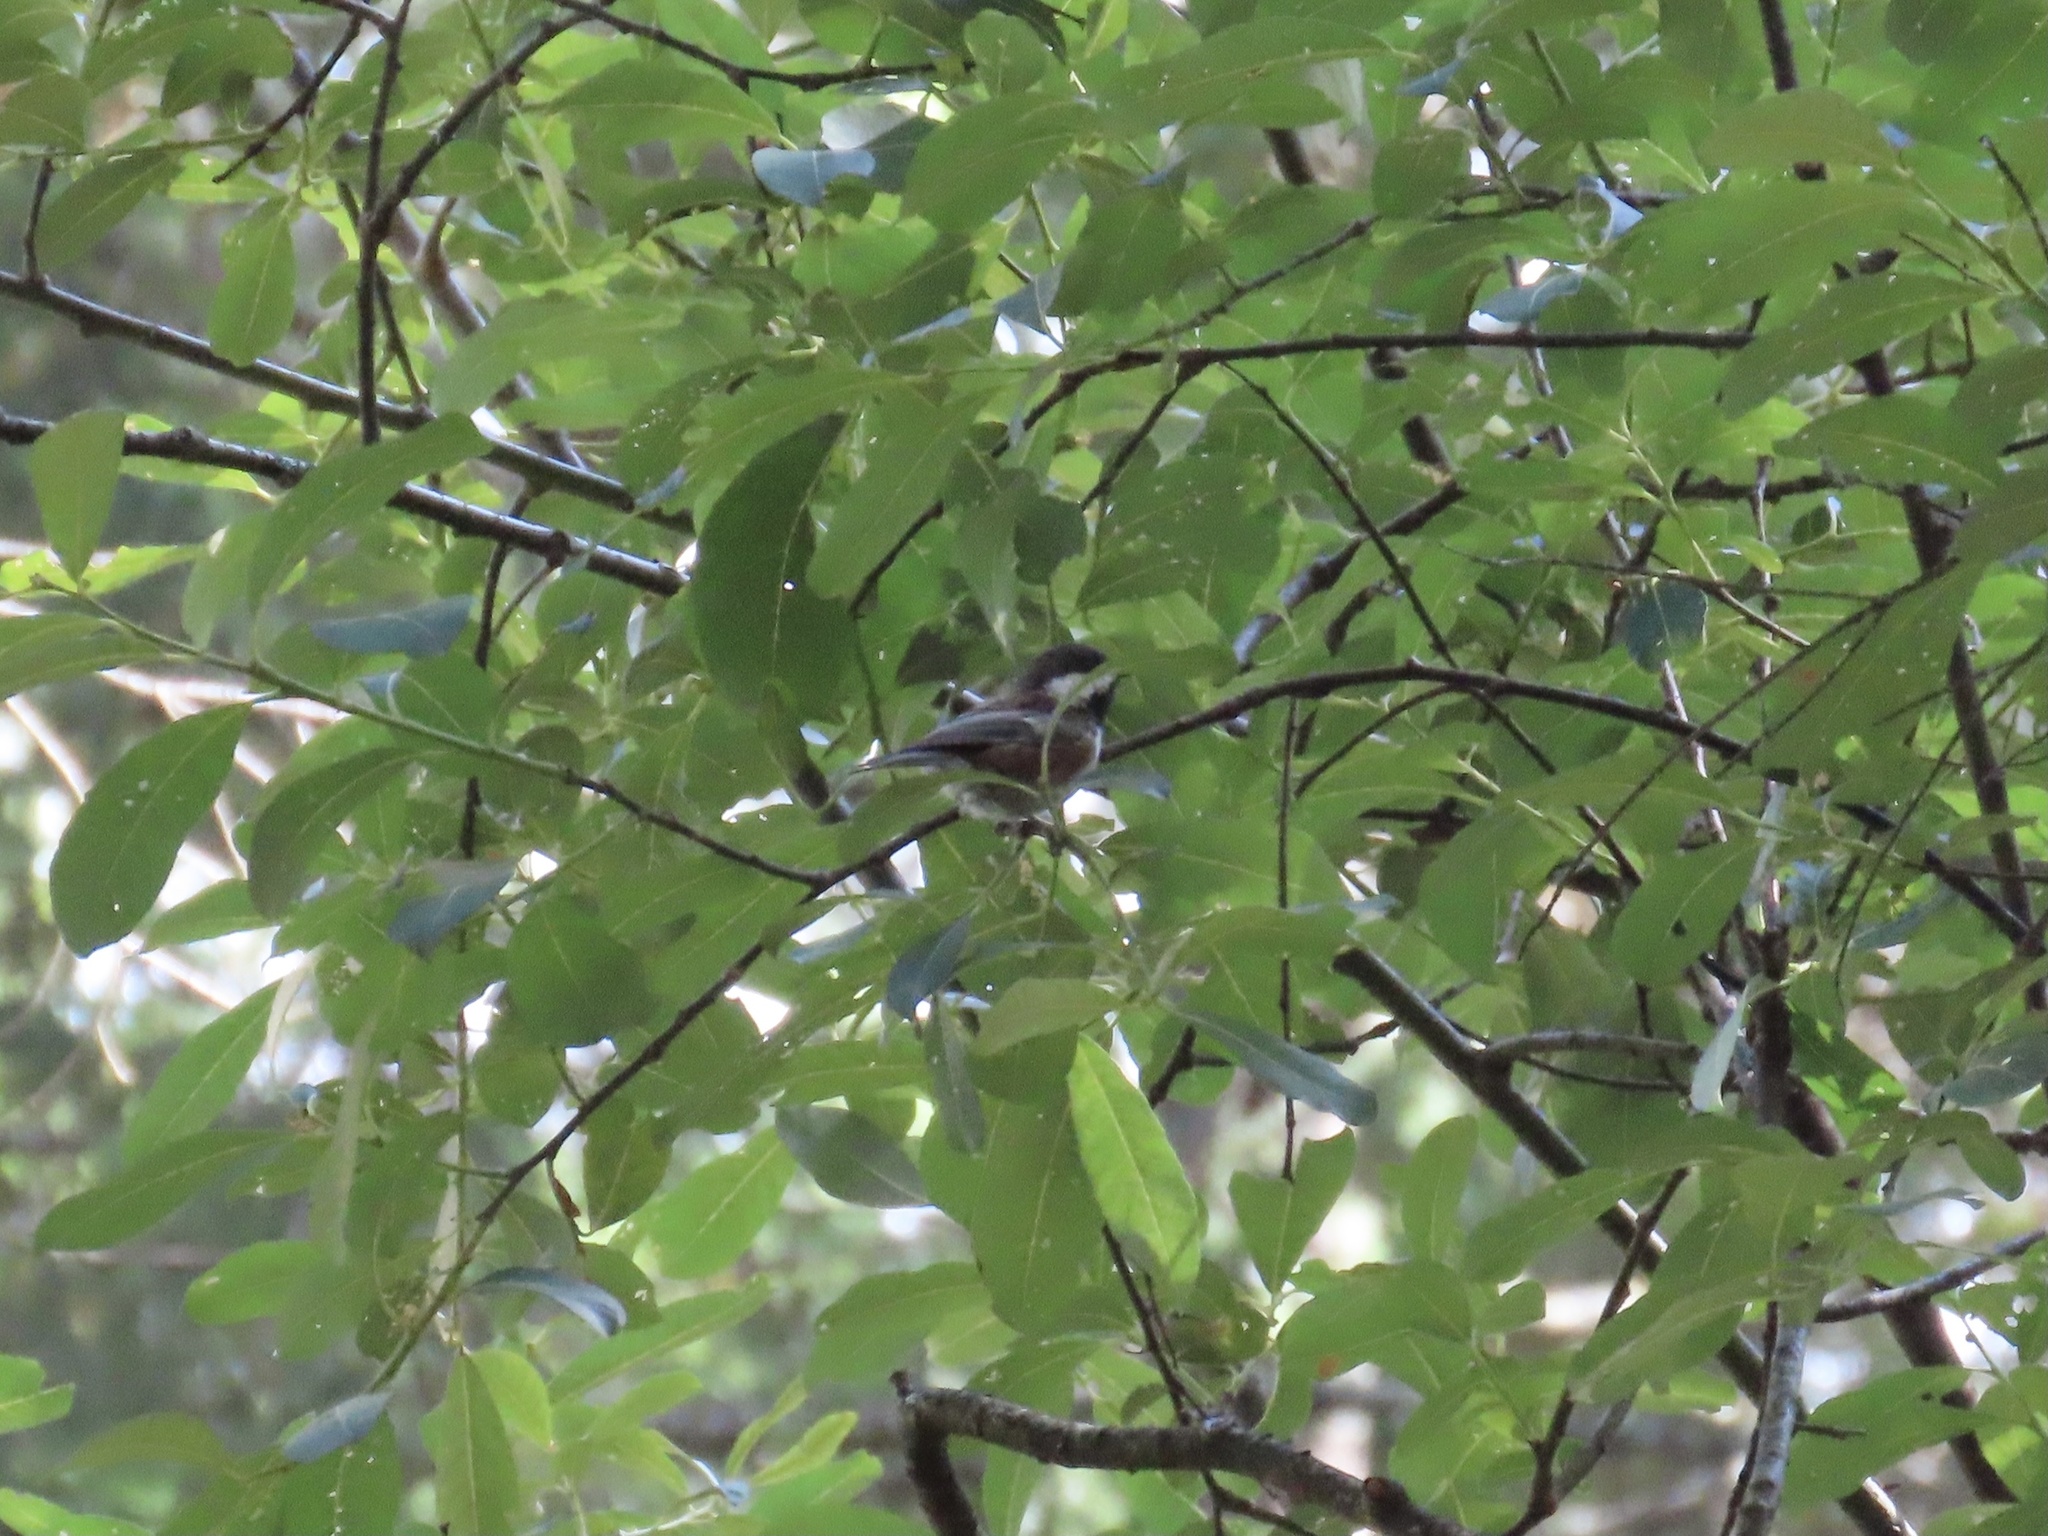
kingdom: Animalia
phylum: Chordata
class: Aves
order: Passeriformes
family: Paridae
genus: Poecile
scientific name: Poecile rufescens
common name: Chestnut-backed chickadee
